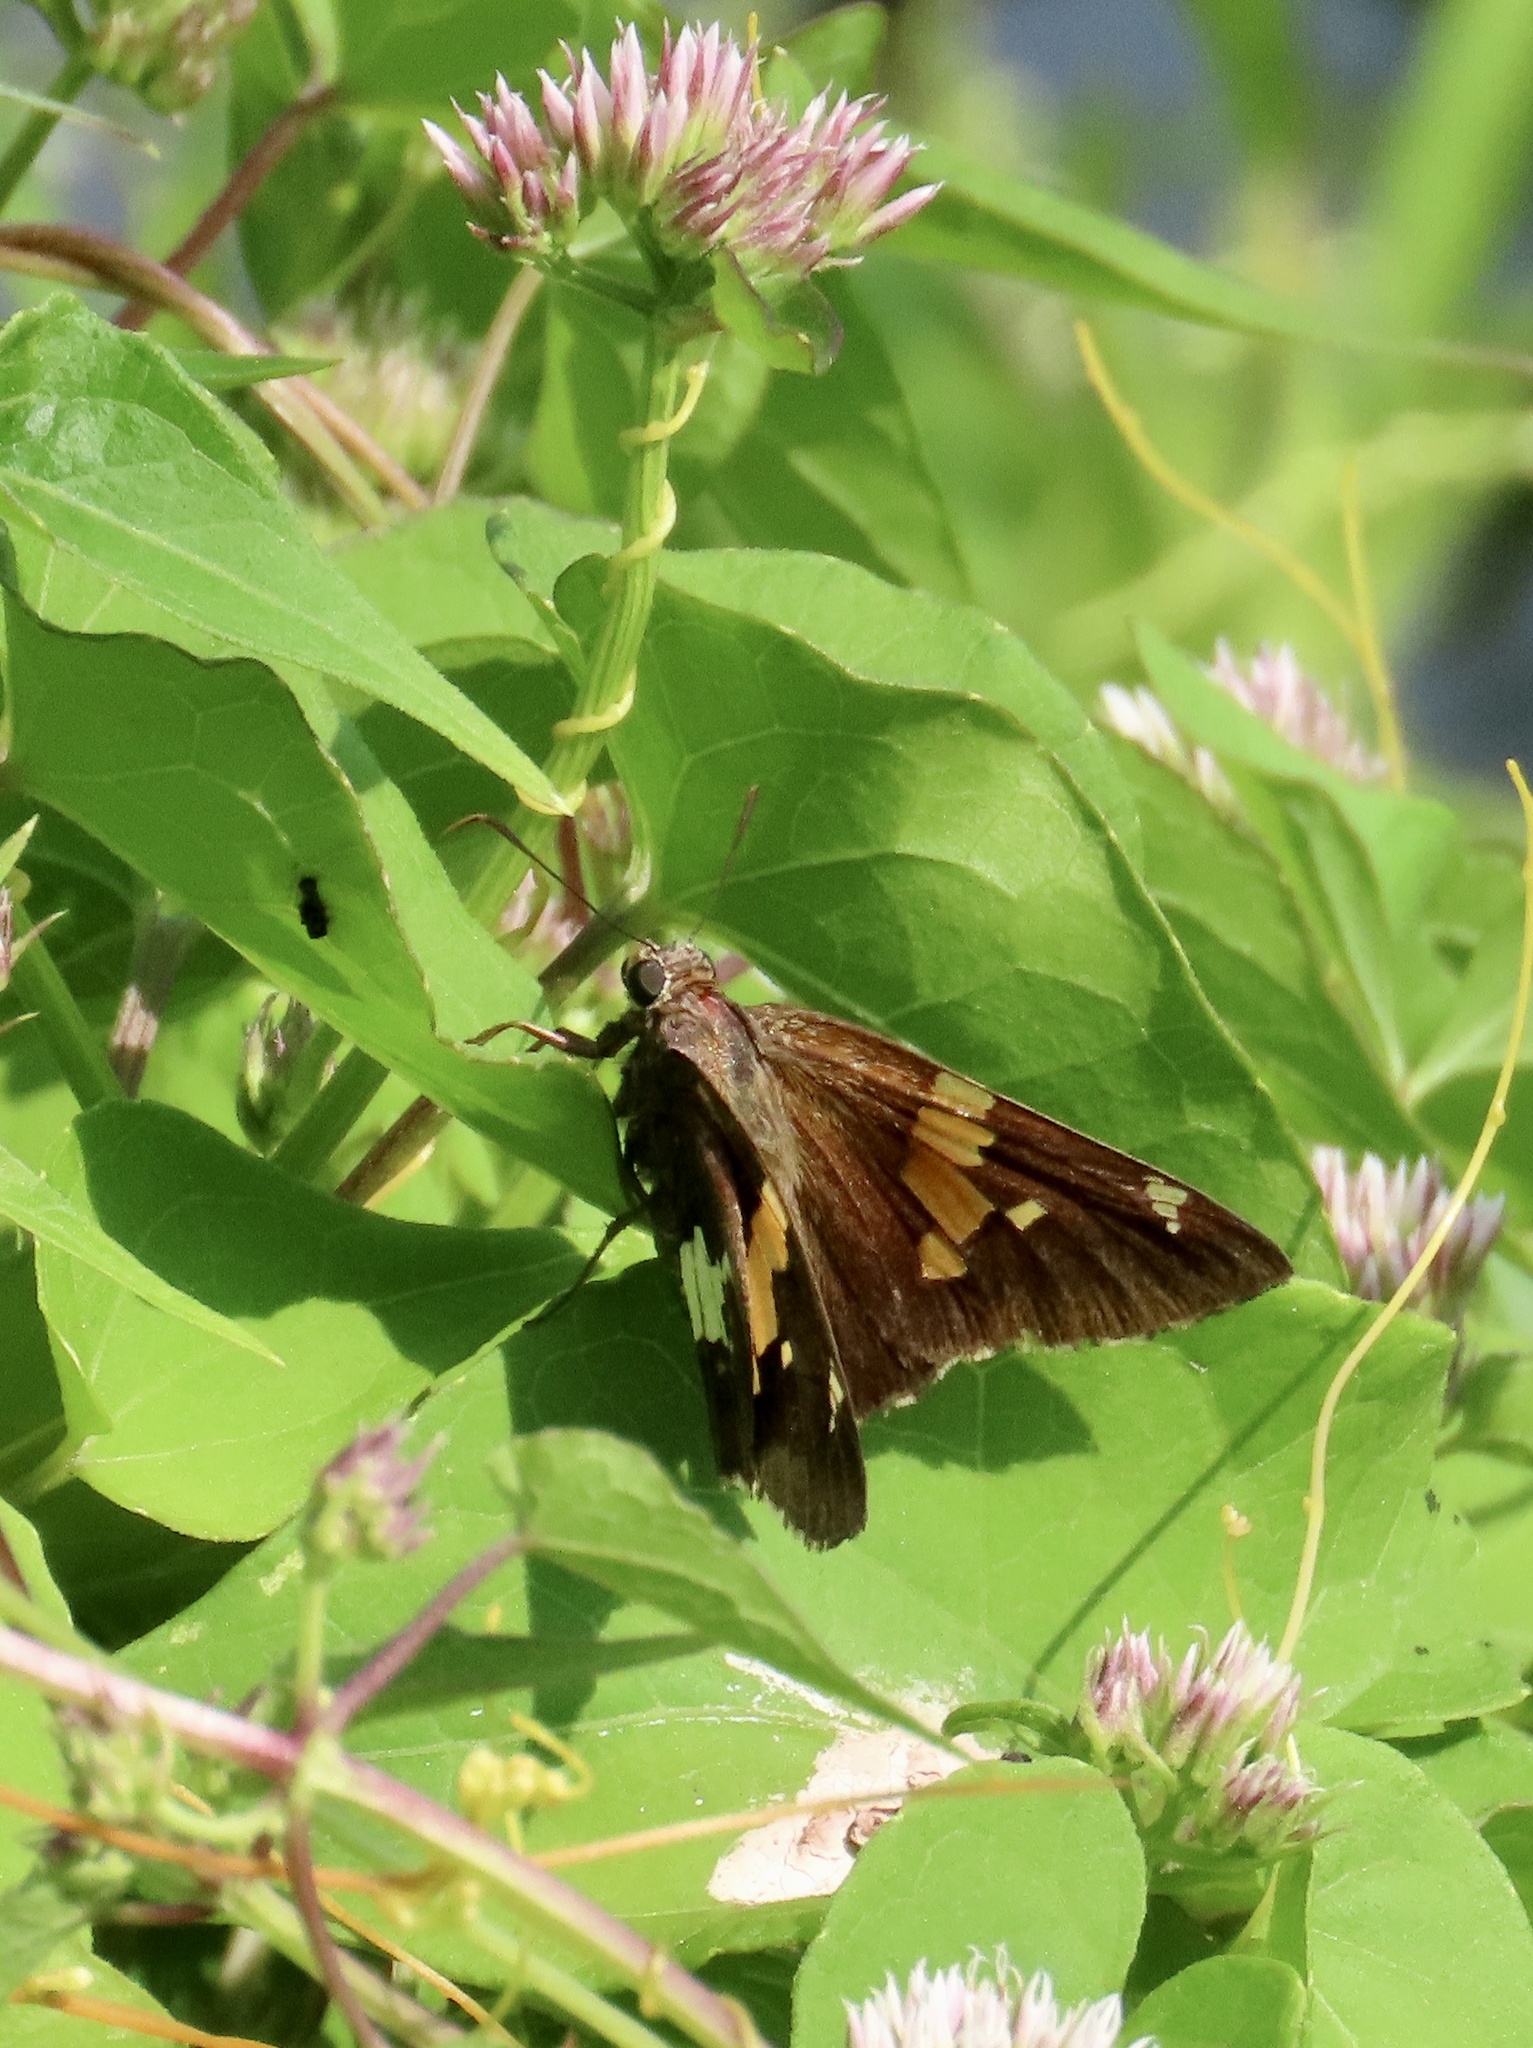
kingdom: Animalia
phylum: Arthropoda
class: Insecta
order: Lepidoptera
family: Hesperiidae
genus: Epargyreus
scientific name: Epargyreus clarus
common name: Silver-spotted skipper
